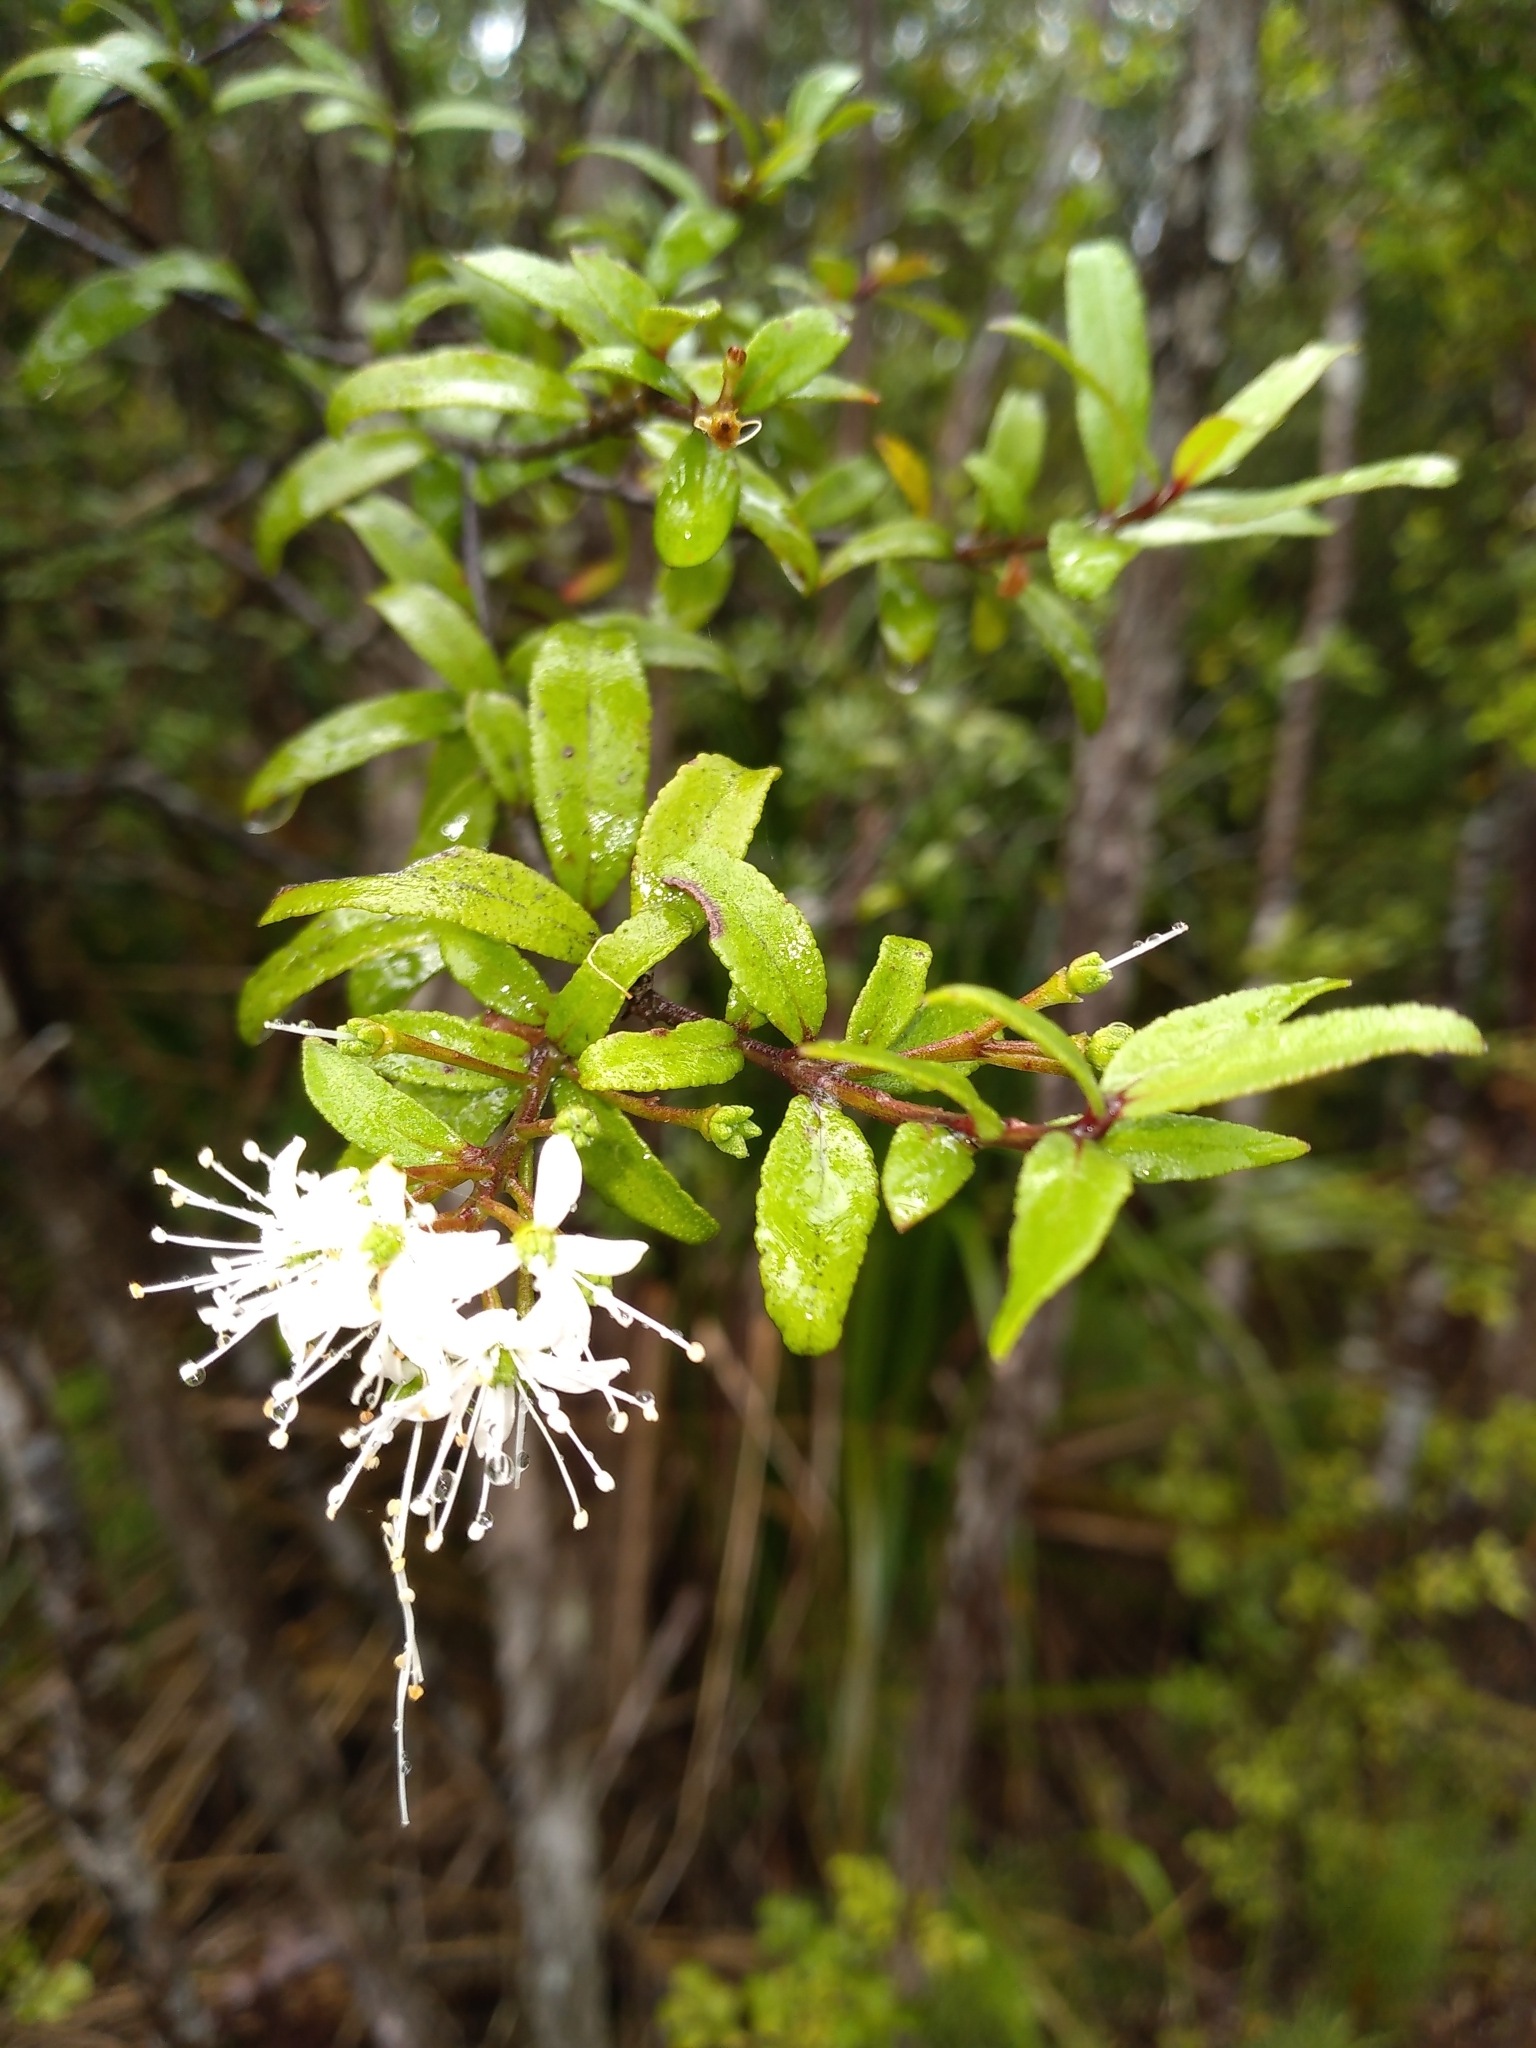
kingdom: Plantae
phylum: Tracheophyta
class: Magnoliopsida
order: Sapindales
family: Rutaceae
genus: Leionema
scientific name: Leionema nudum
